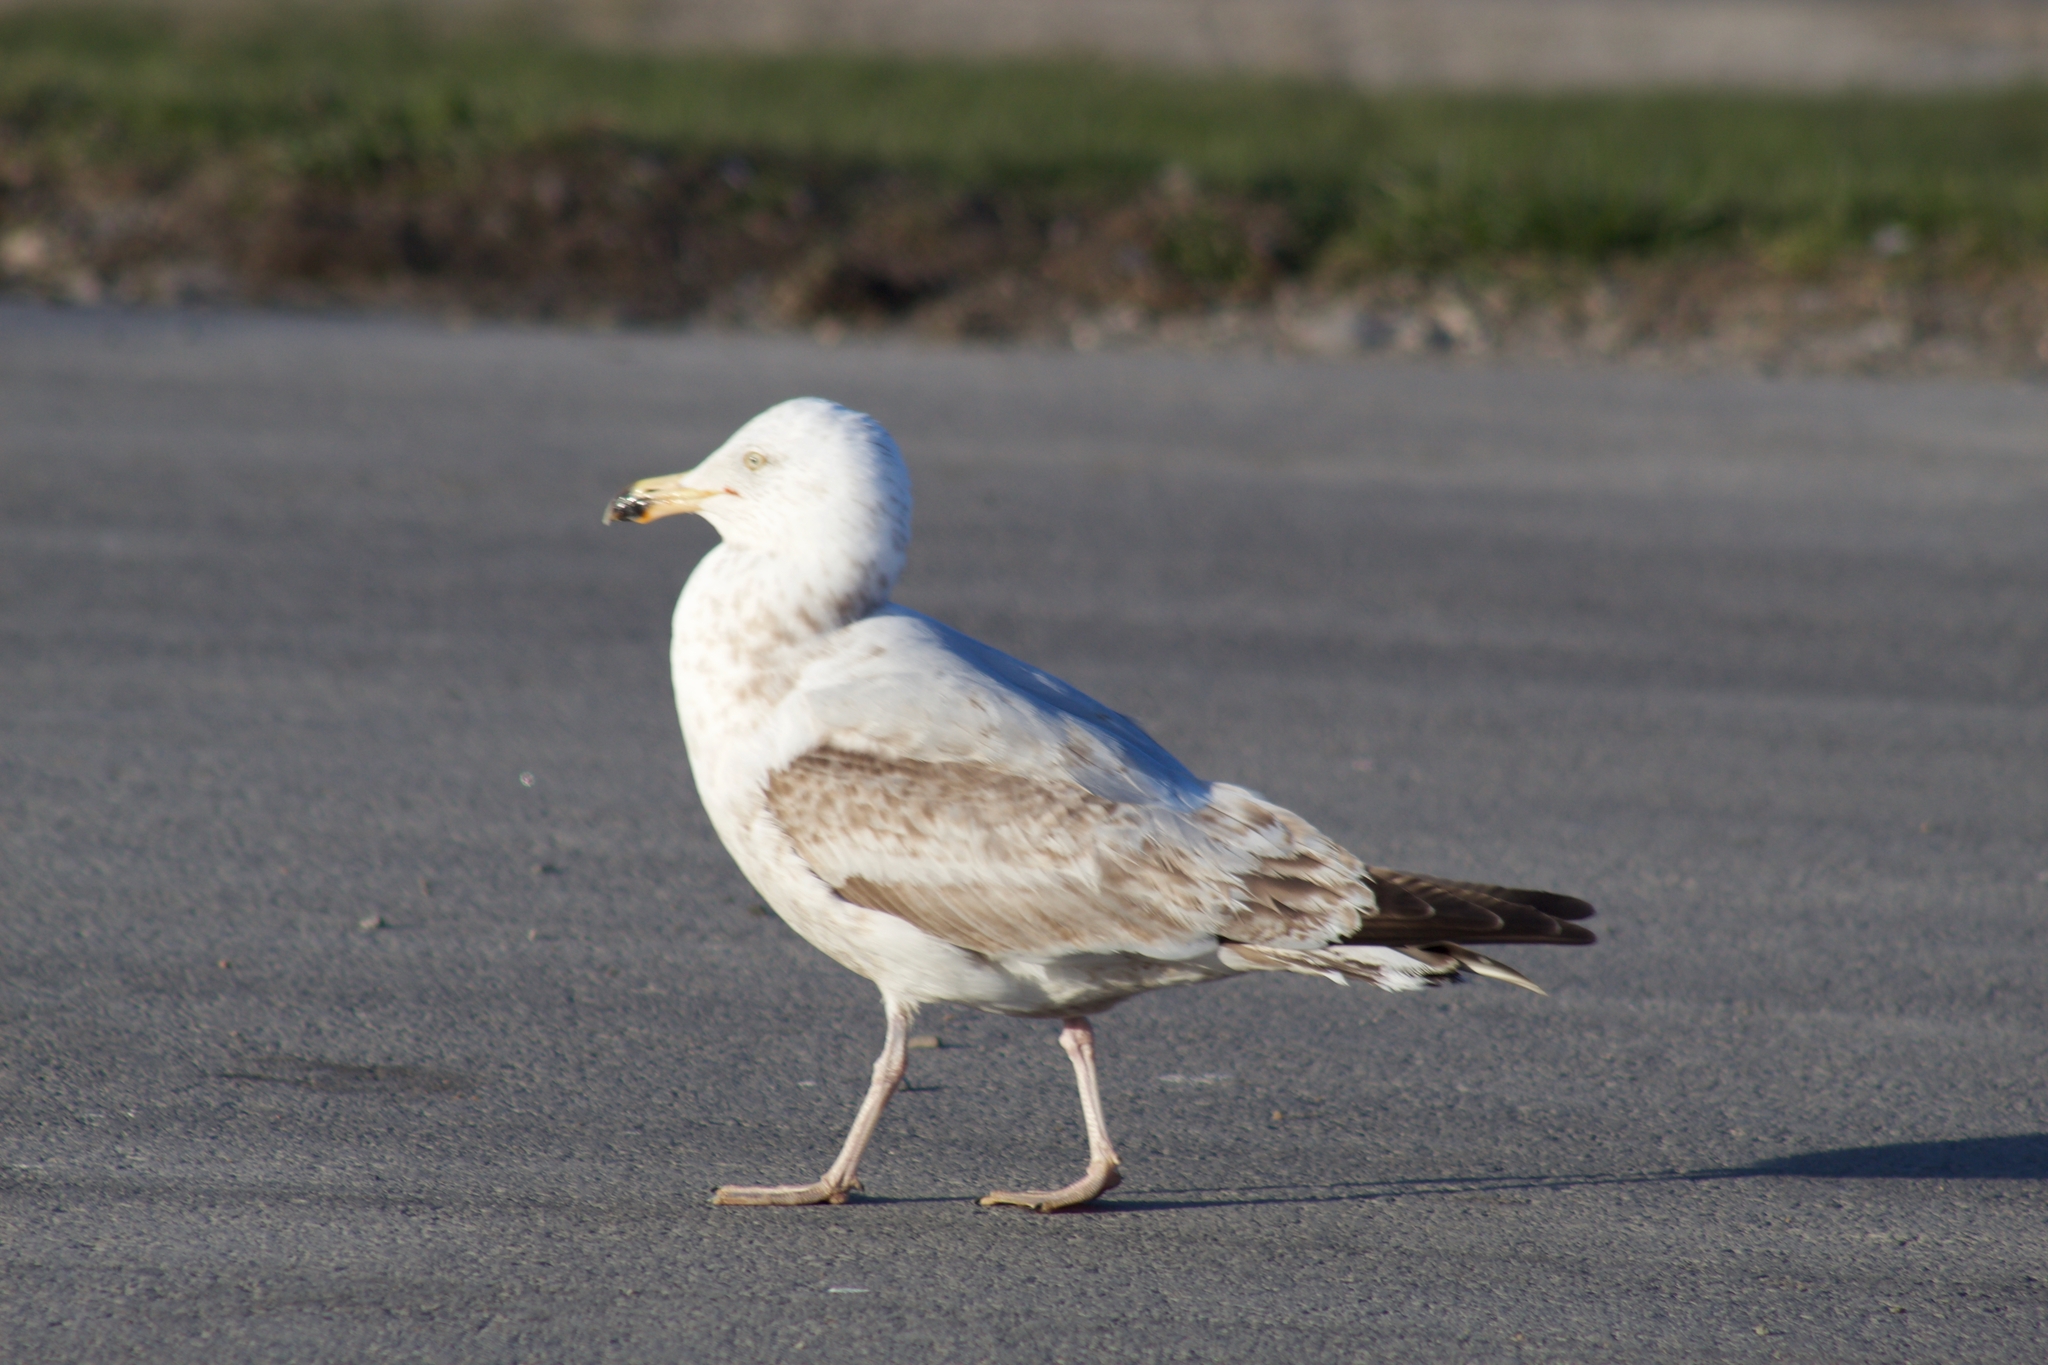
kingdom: Animalia
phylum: Chordata
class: Aves
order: Charadriiformes
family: Laridae
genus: Larus
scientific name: Larus argentatus
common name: Herring gull
